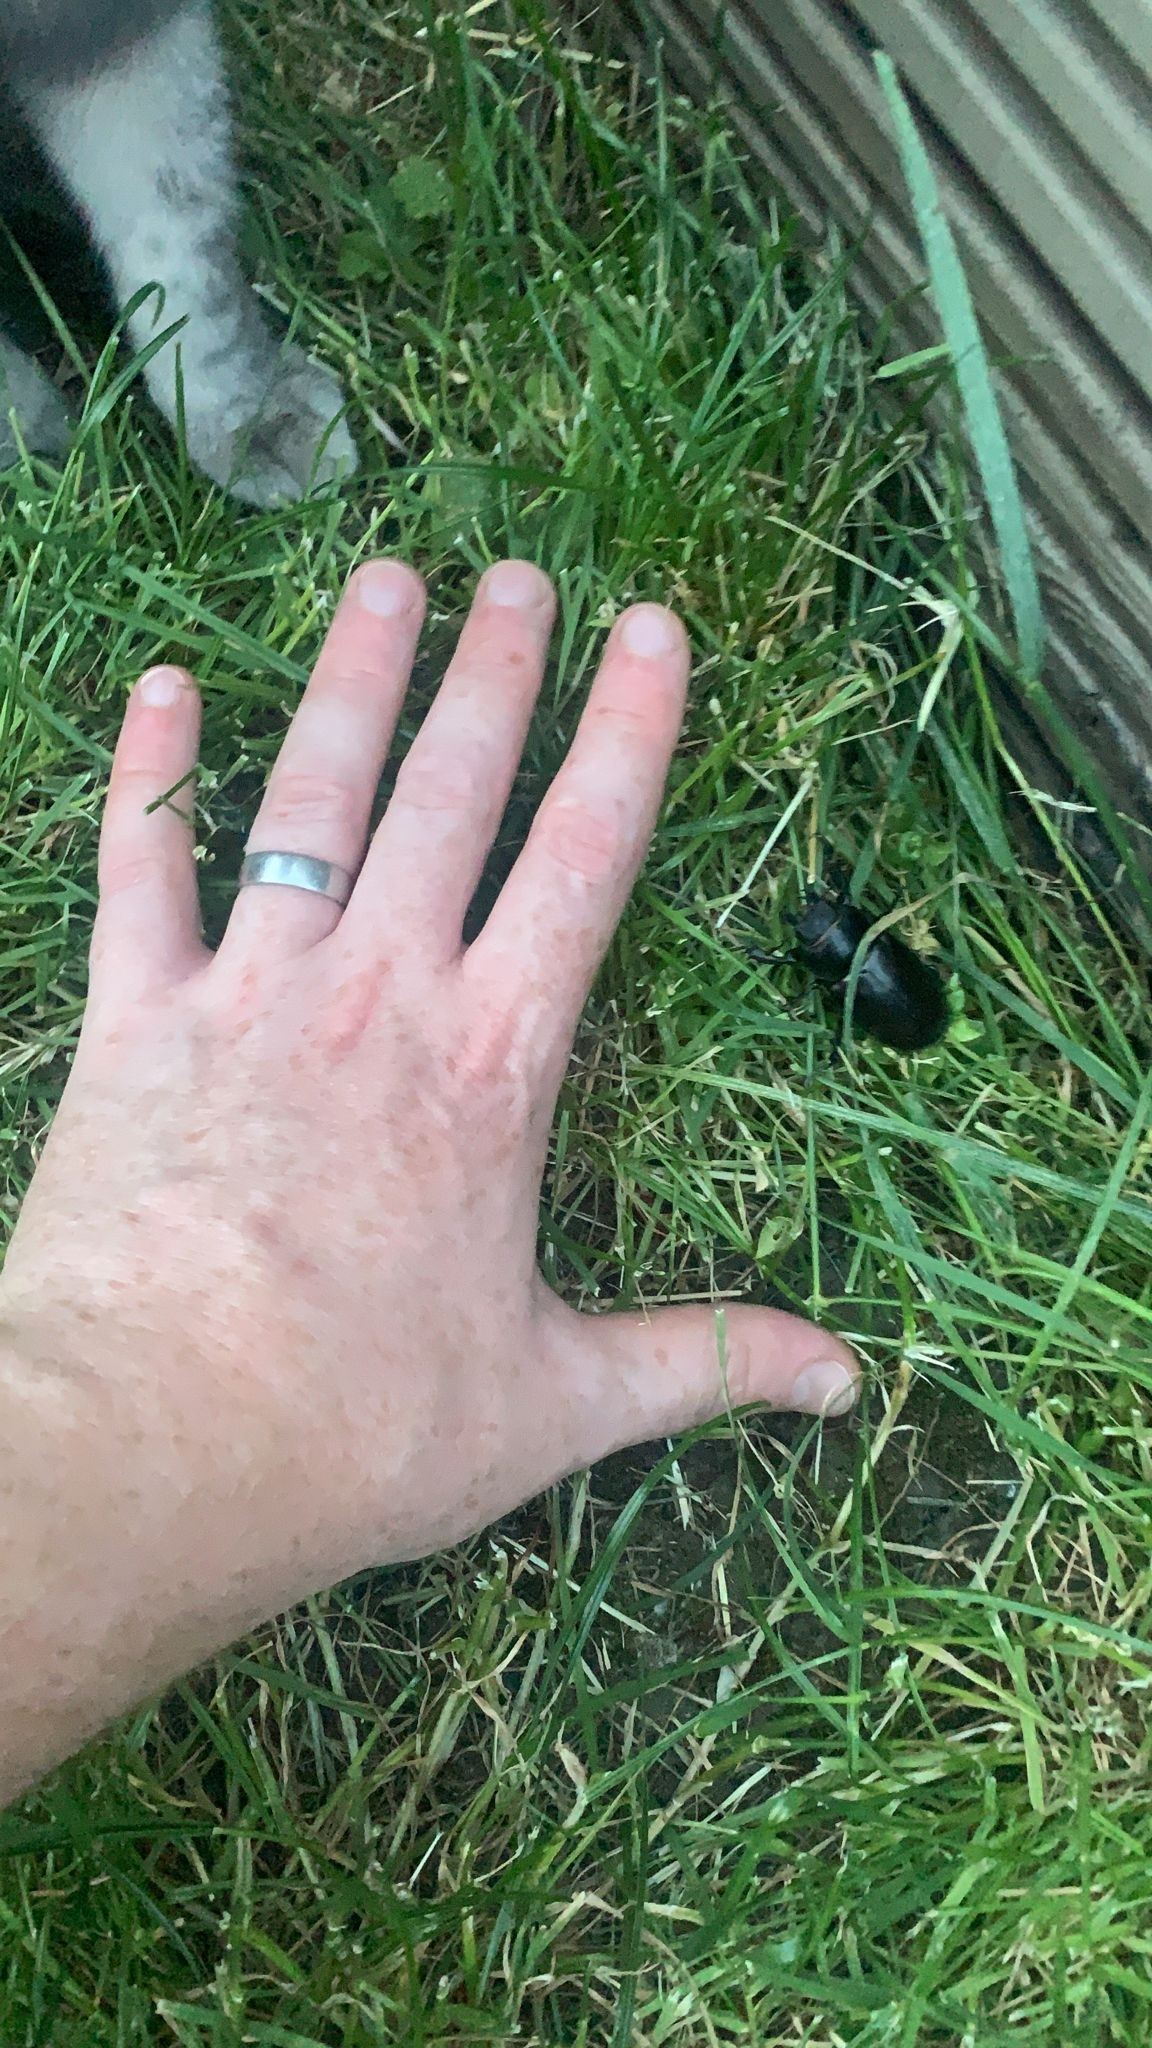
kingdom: Animalia
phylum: Arthropoda
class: Insecta
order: Coleoptera
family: Lucanidae
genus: Lucanus
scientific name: Lucanus cervus
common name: Stag beetle
